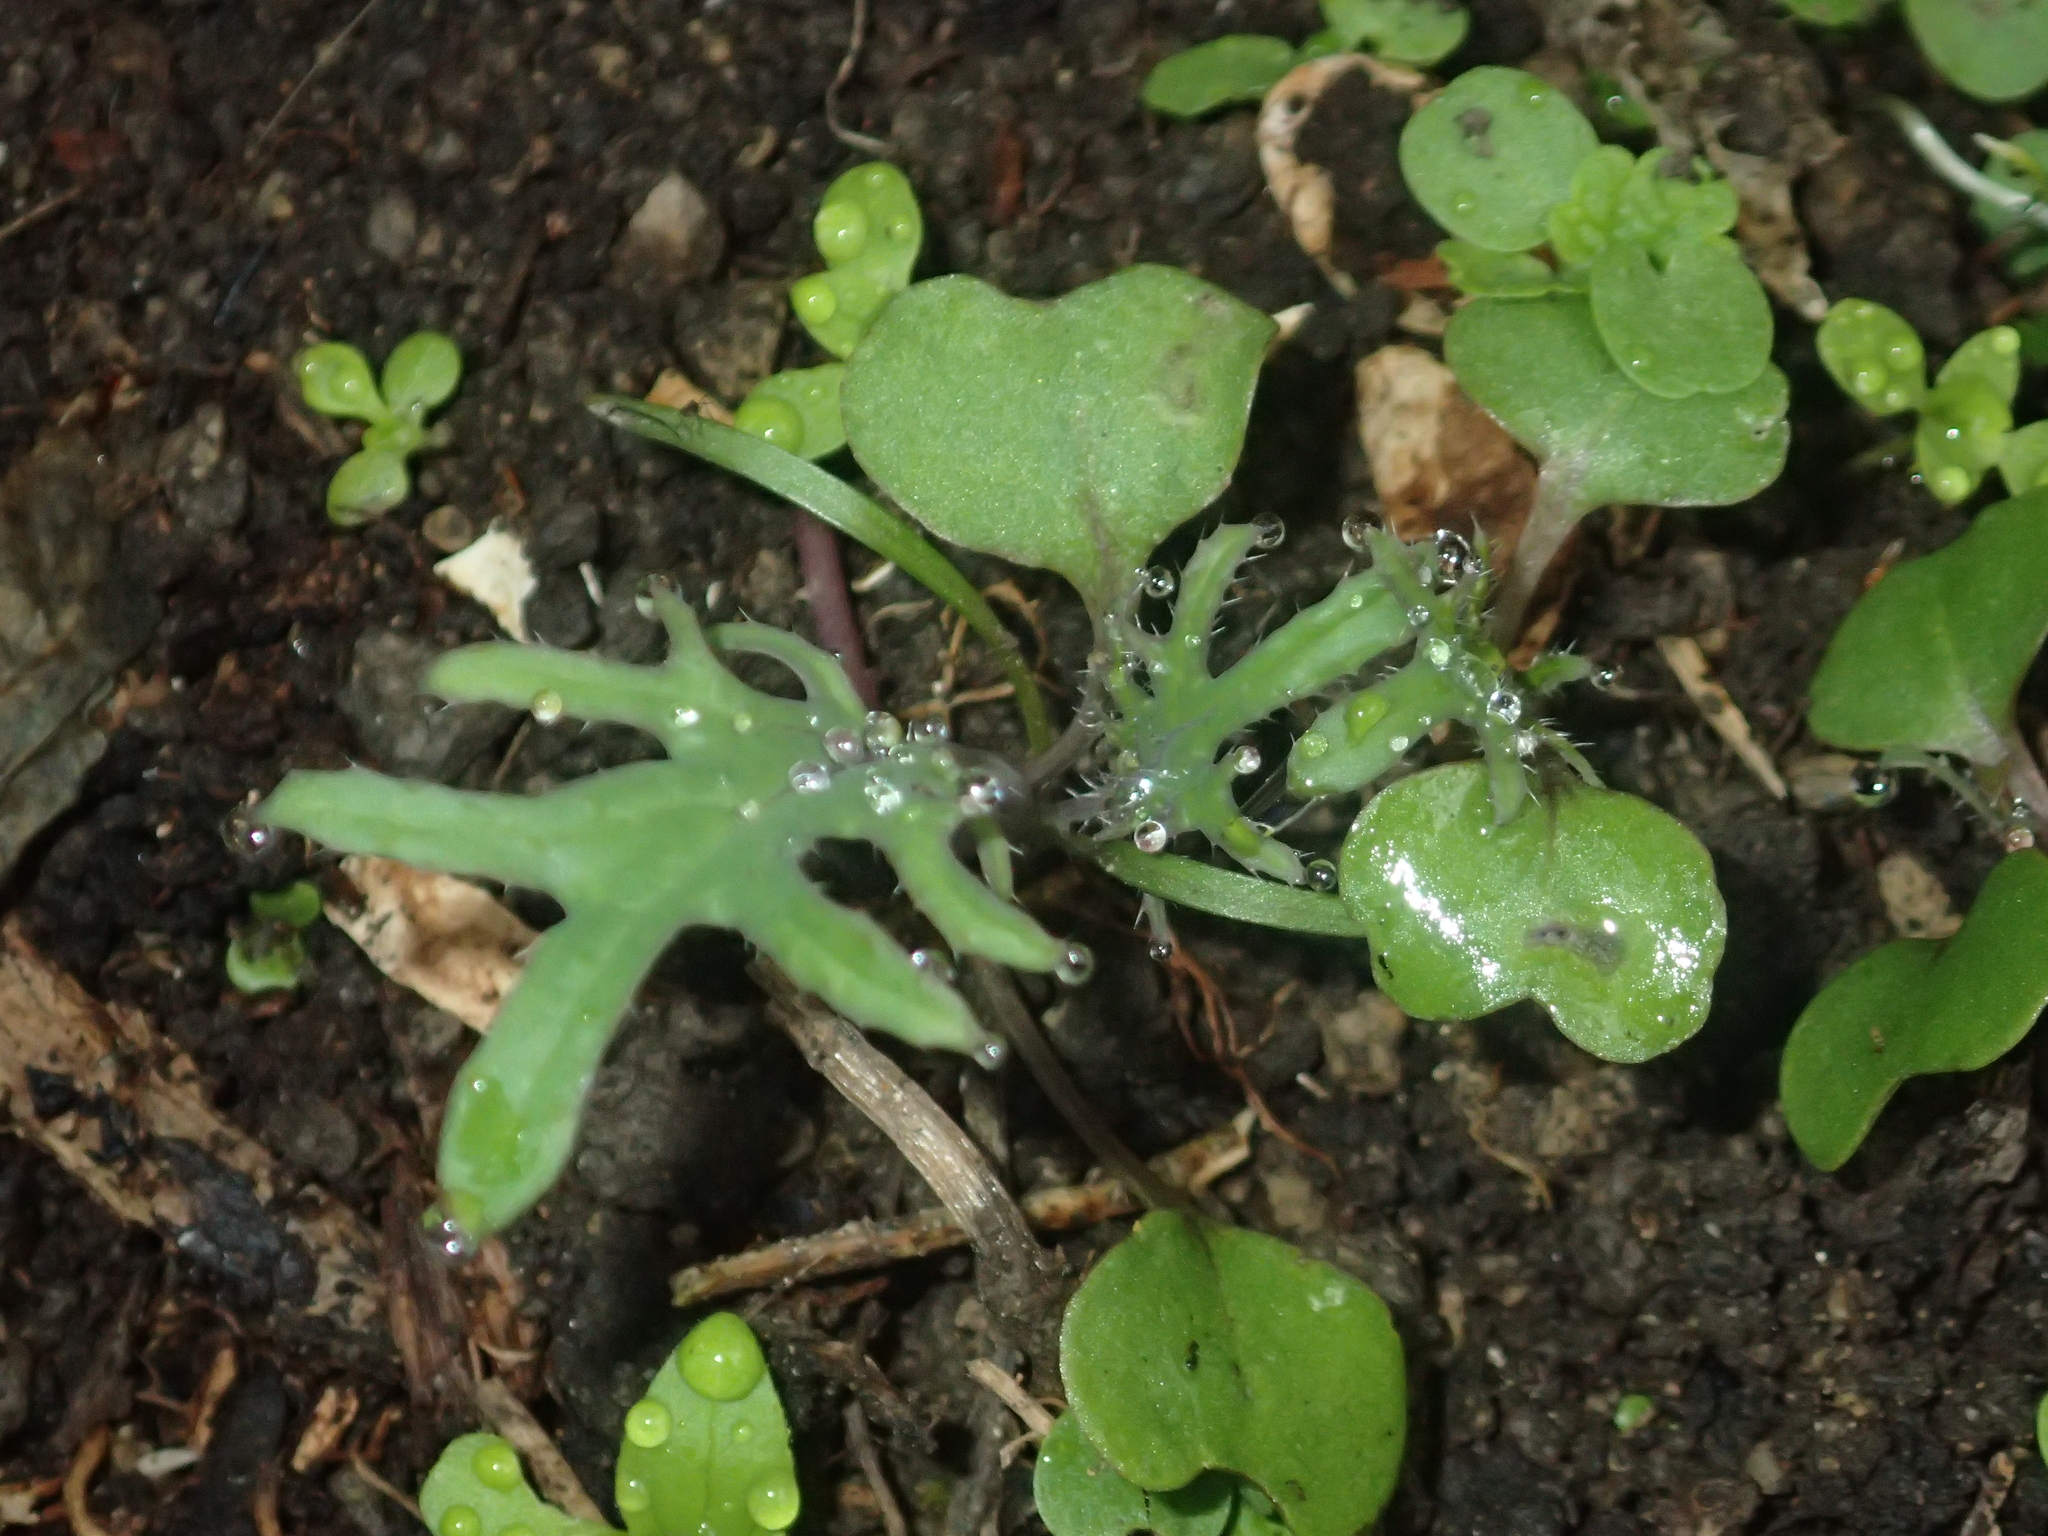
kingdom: Plantae
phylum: Tracheophyta
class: Magnoliopsida
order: Brassicales
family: Brassicaceae
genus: Brassica
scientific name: Brassica oleracea
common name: Cabbage
